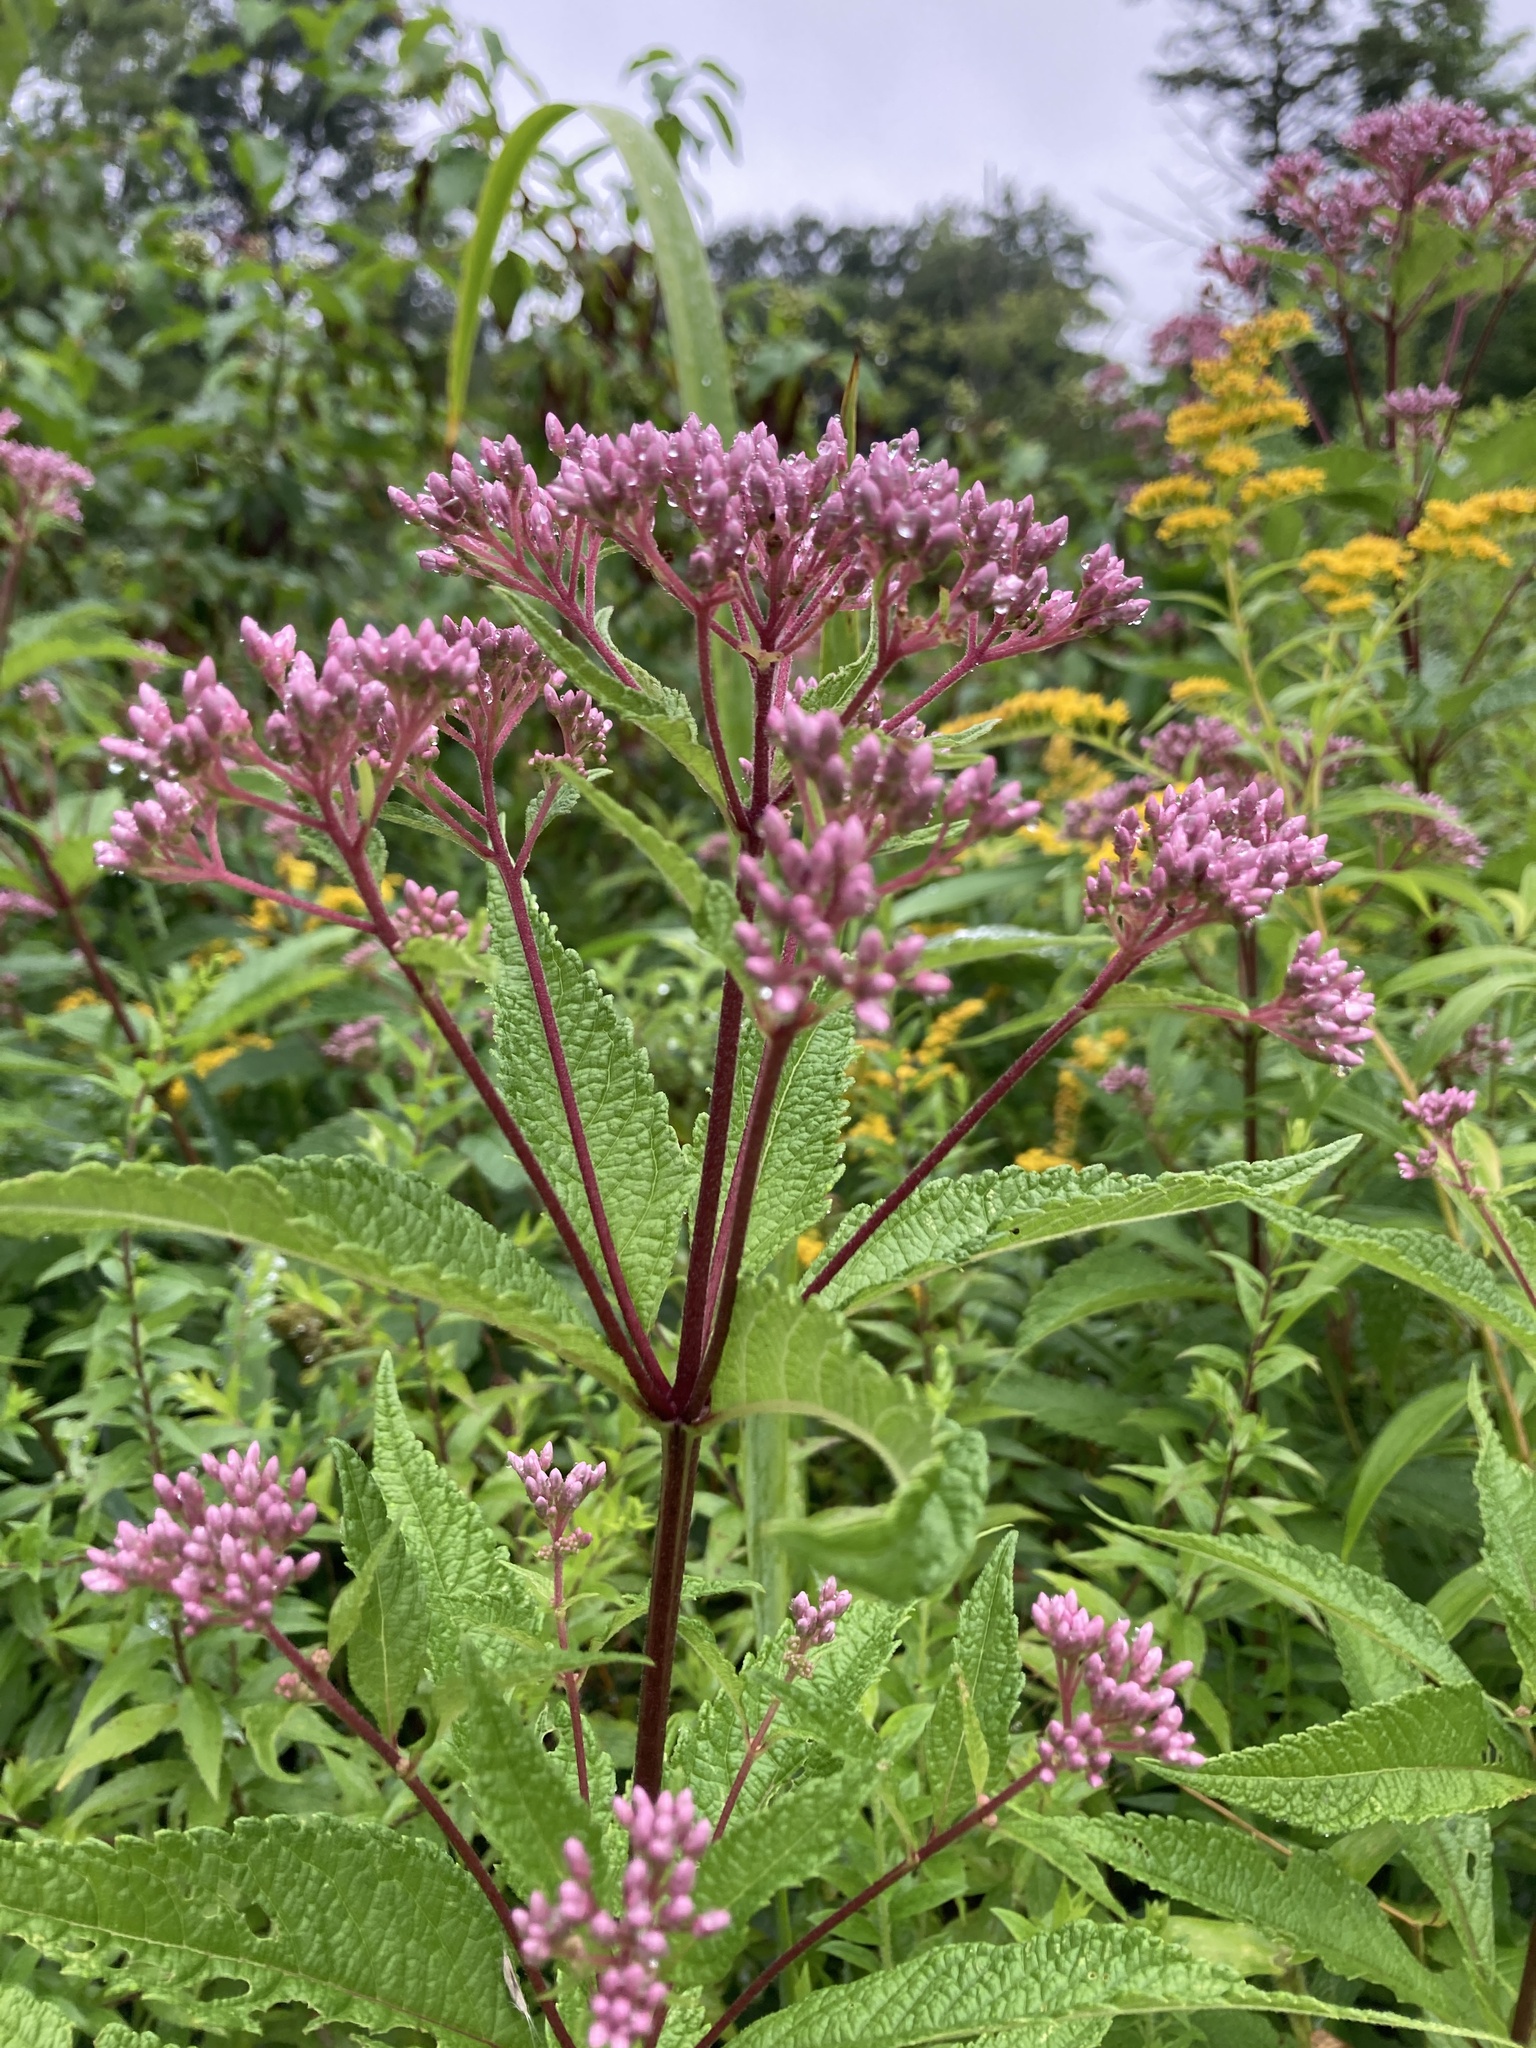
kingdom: Plantae
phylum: Tracheophyta
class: Magnoliopsida
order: Asterales
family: Asteraceae
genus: Eutrochium
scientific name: Eutrochium maculatum
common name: Spotted joe pye weed
